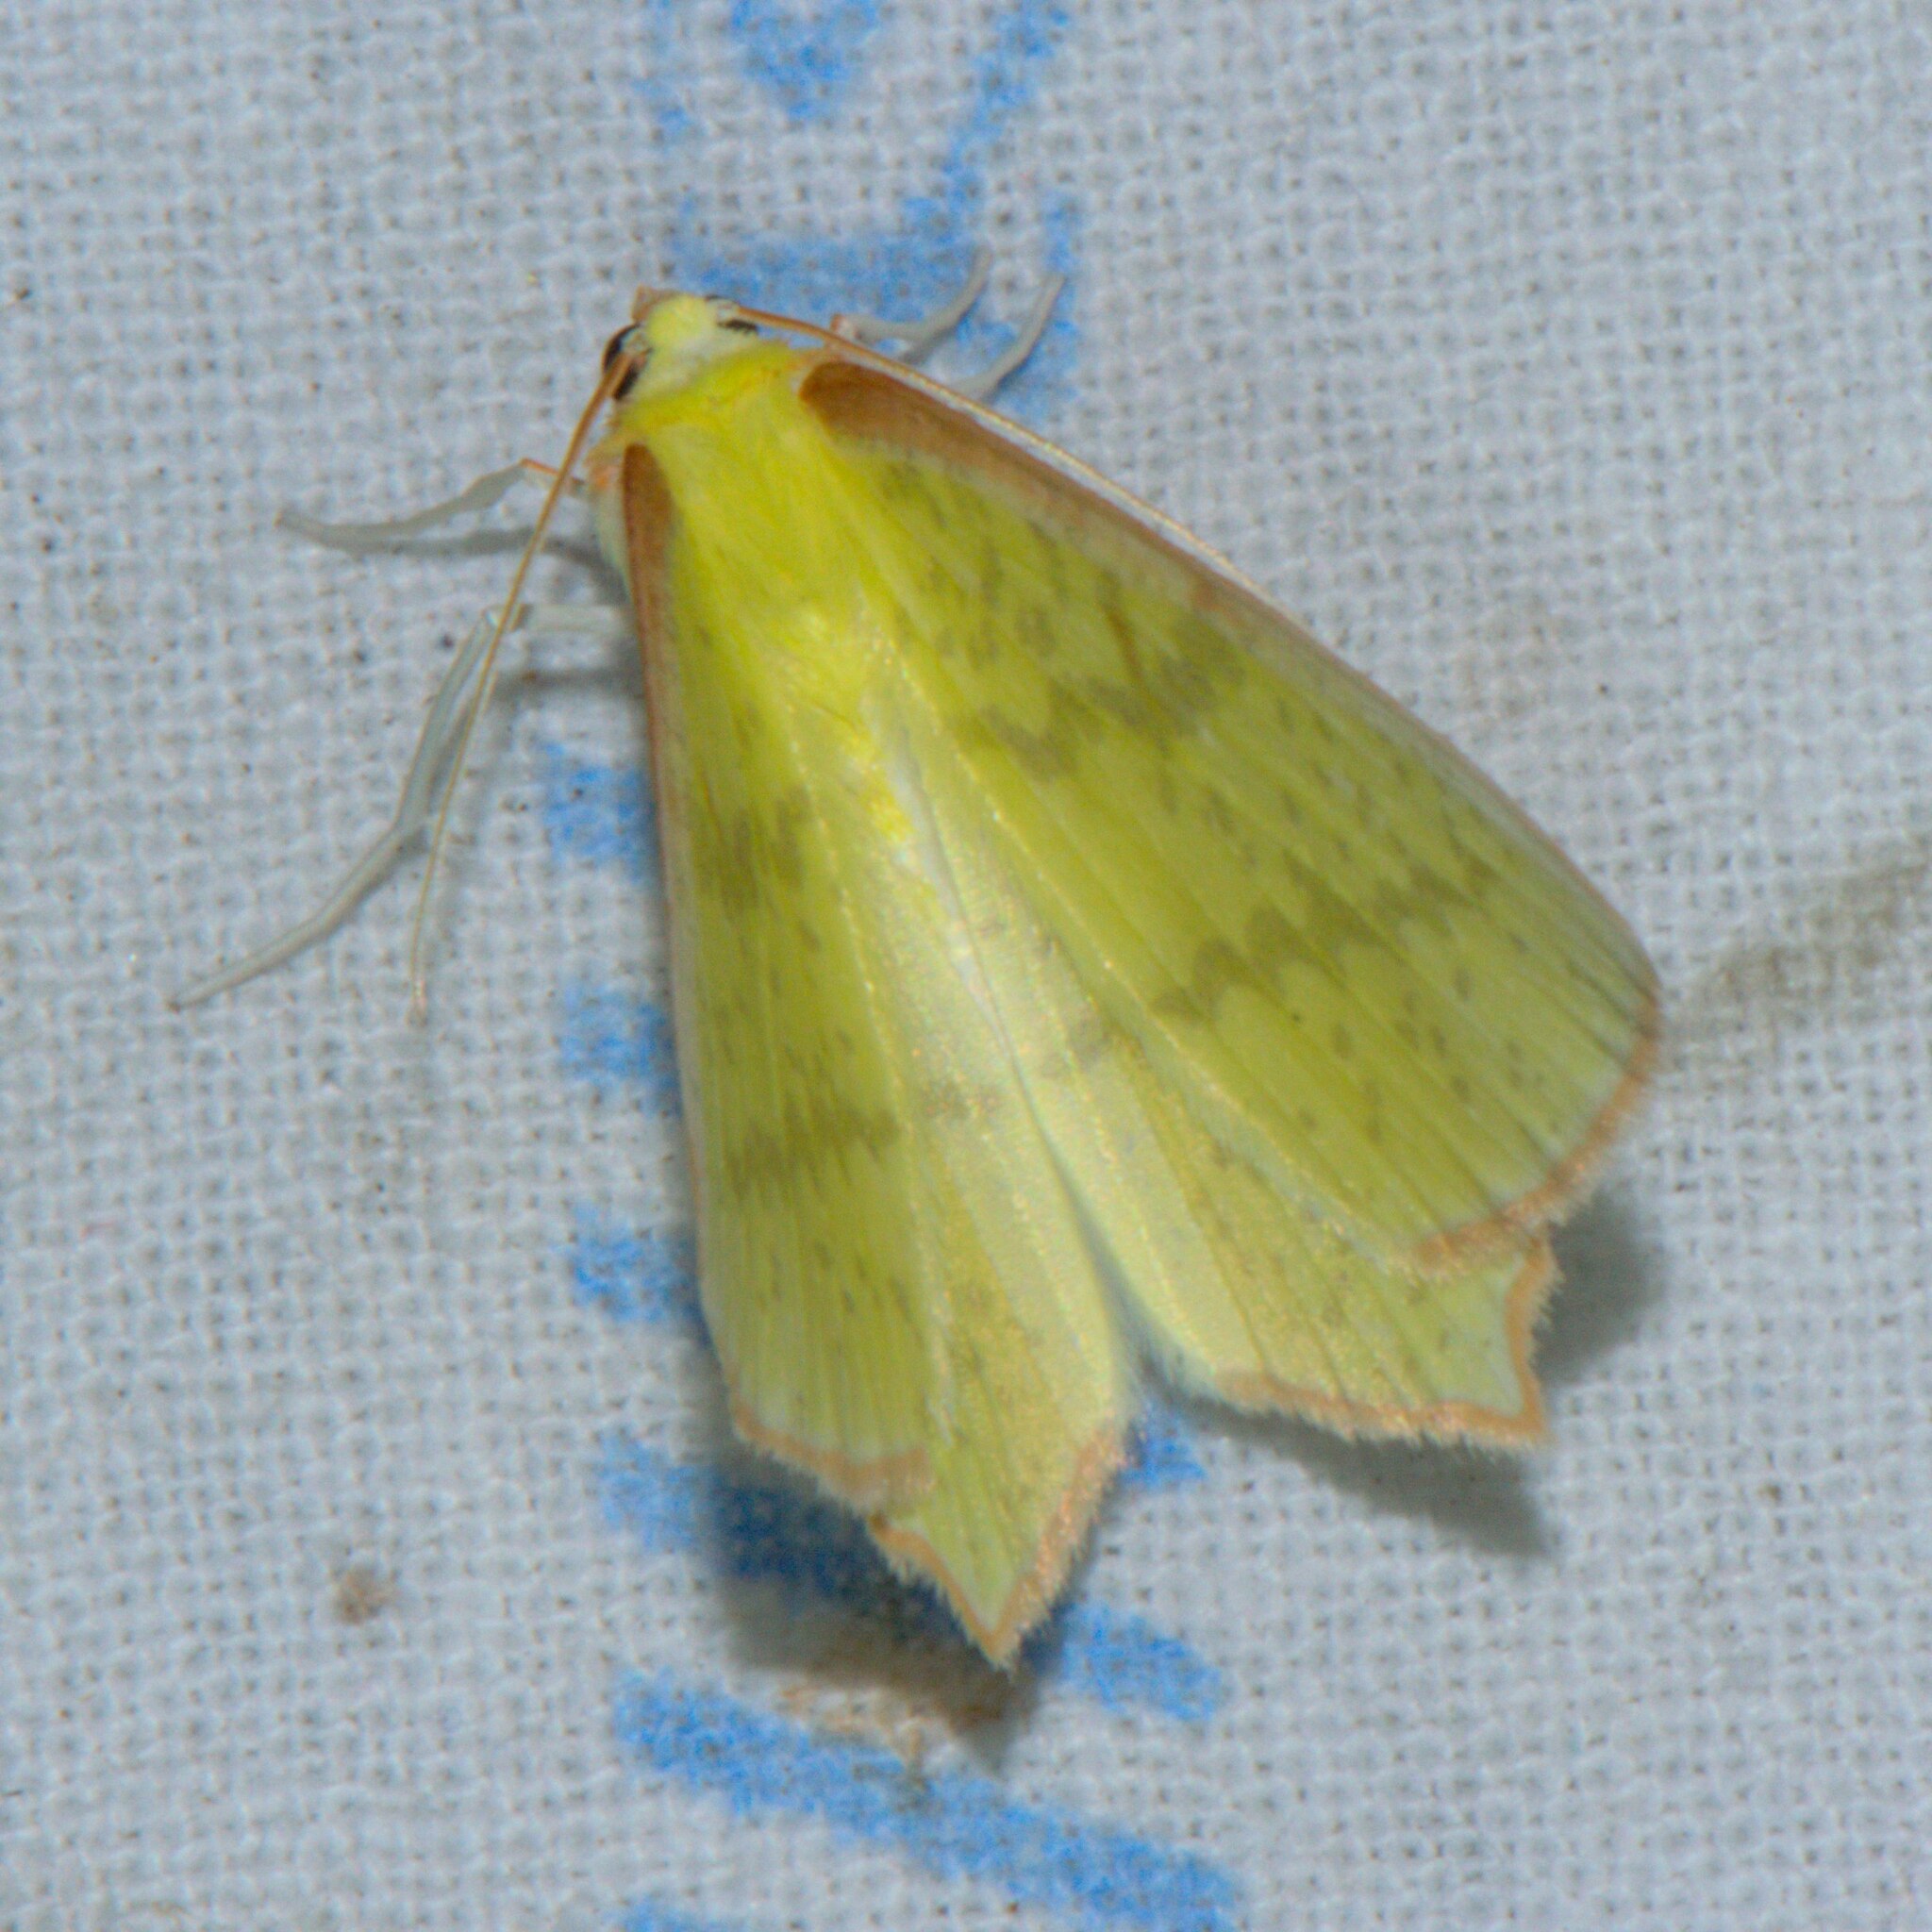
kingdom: Animalia
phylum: Arthropoda
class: Insecta
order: Lepidoptera
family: Geometridae
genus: Sirinopteryx
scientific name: Sirinopteryx rufivinctata
